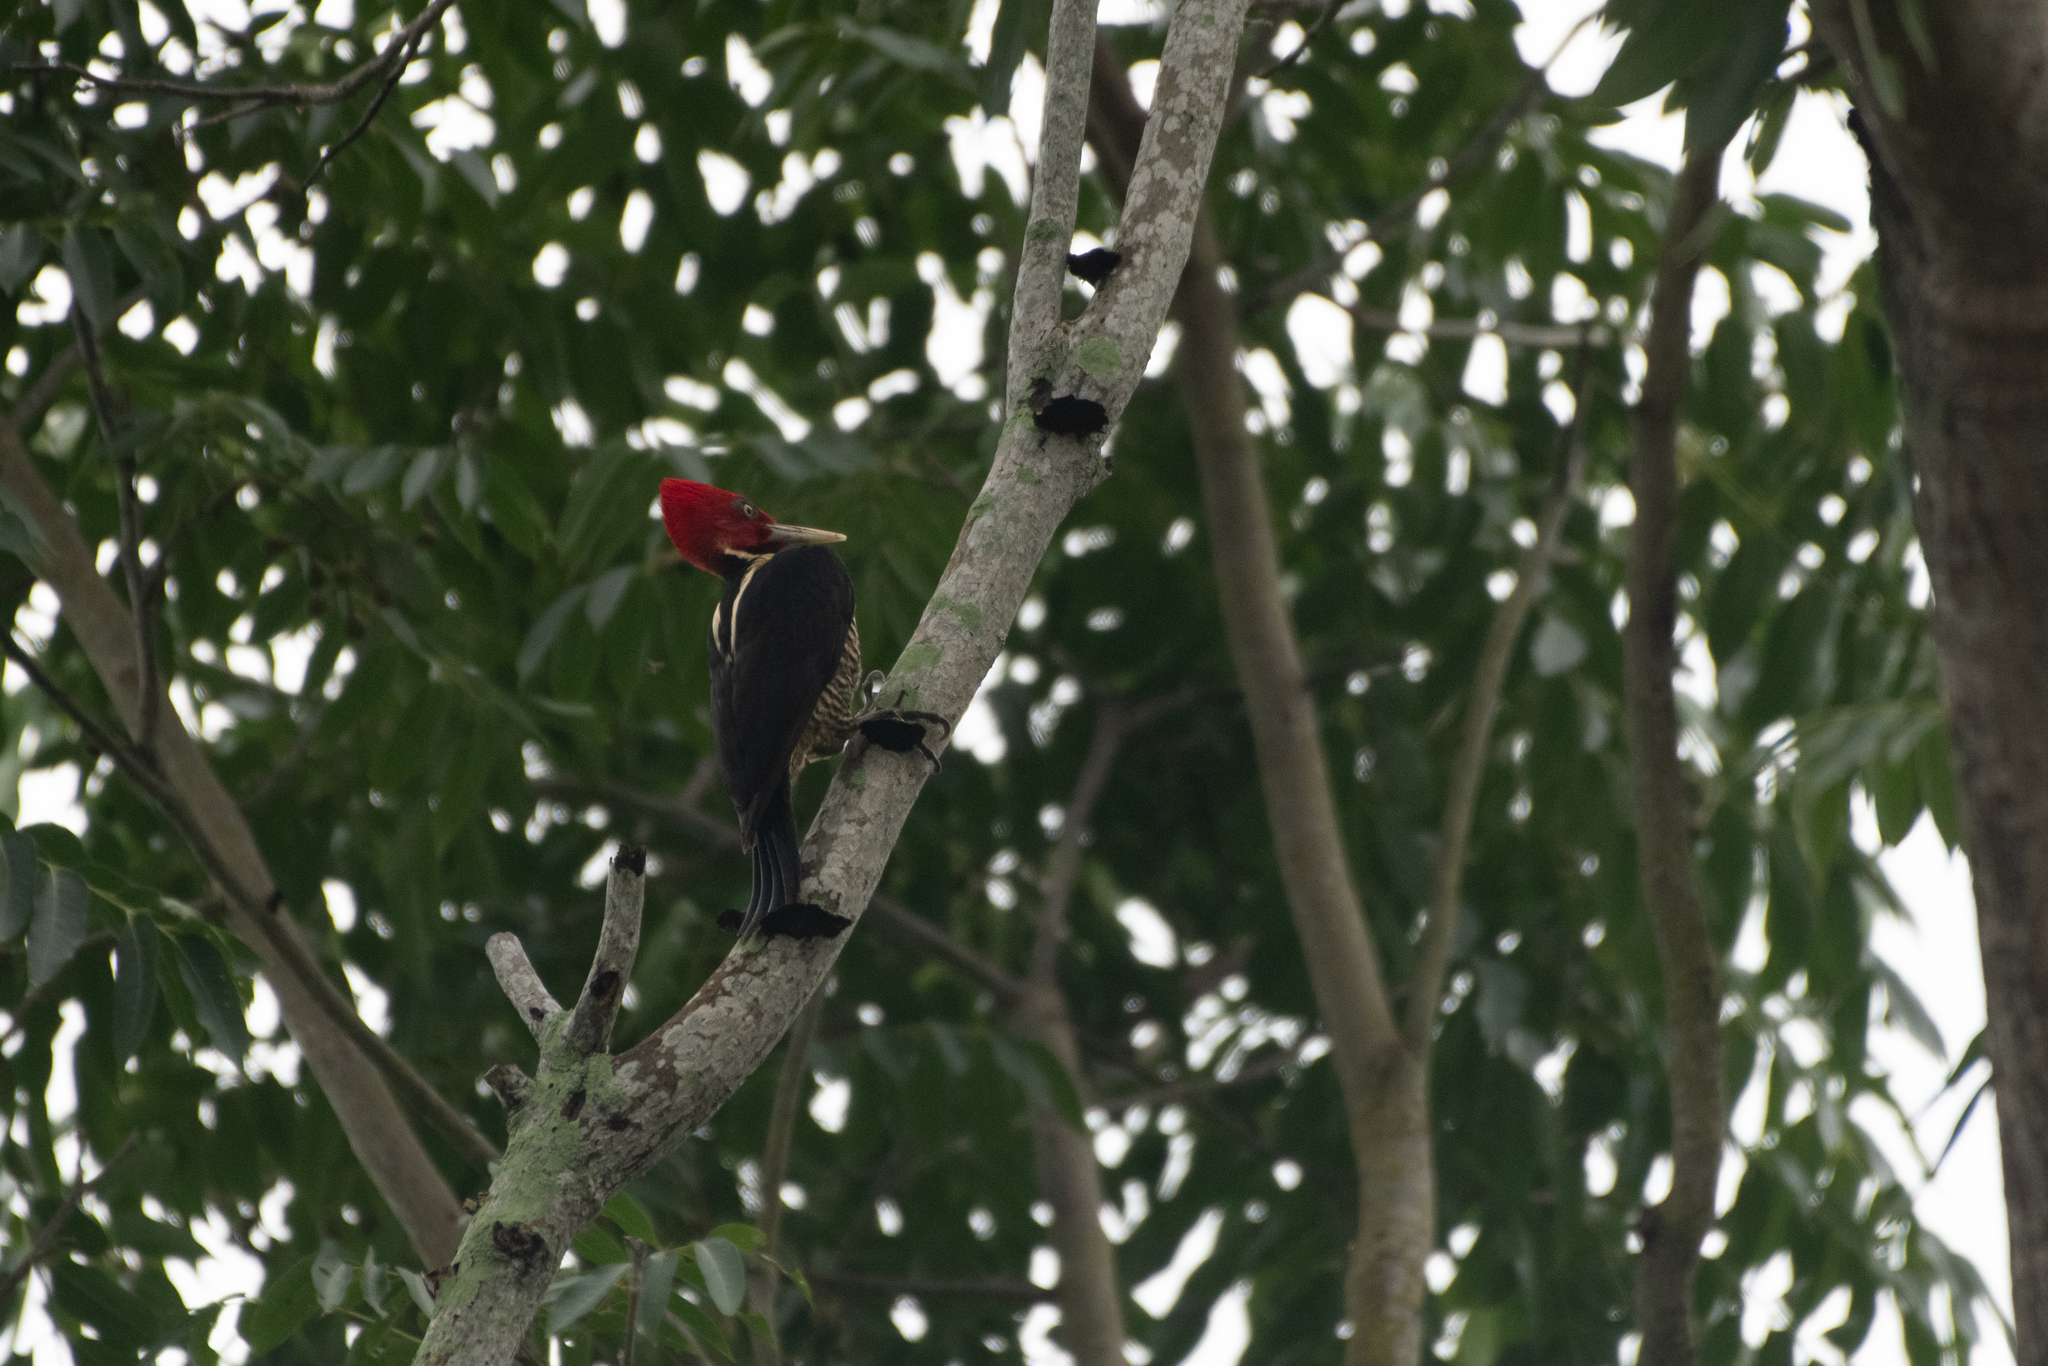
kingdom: Animalia
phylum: Chordata
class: Aves
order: Piciformes
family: Picidae
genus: Campephilus
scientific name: Campephilus guatemalensis
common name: Pale-billed woodpecker
